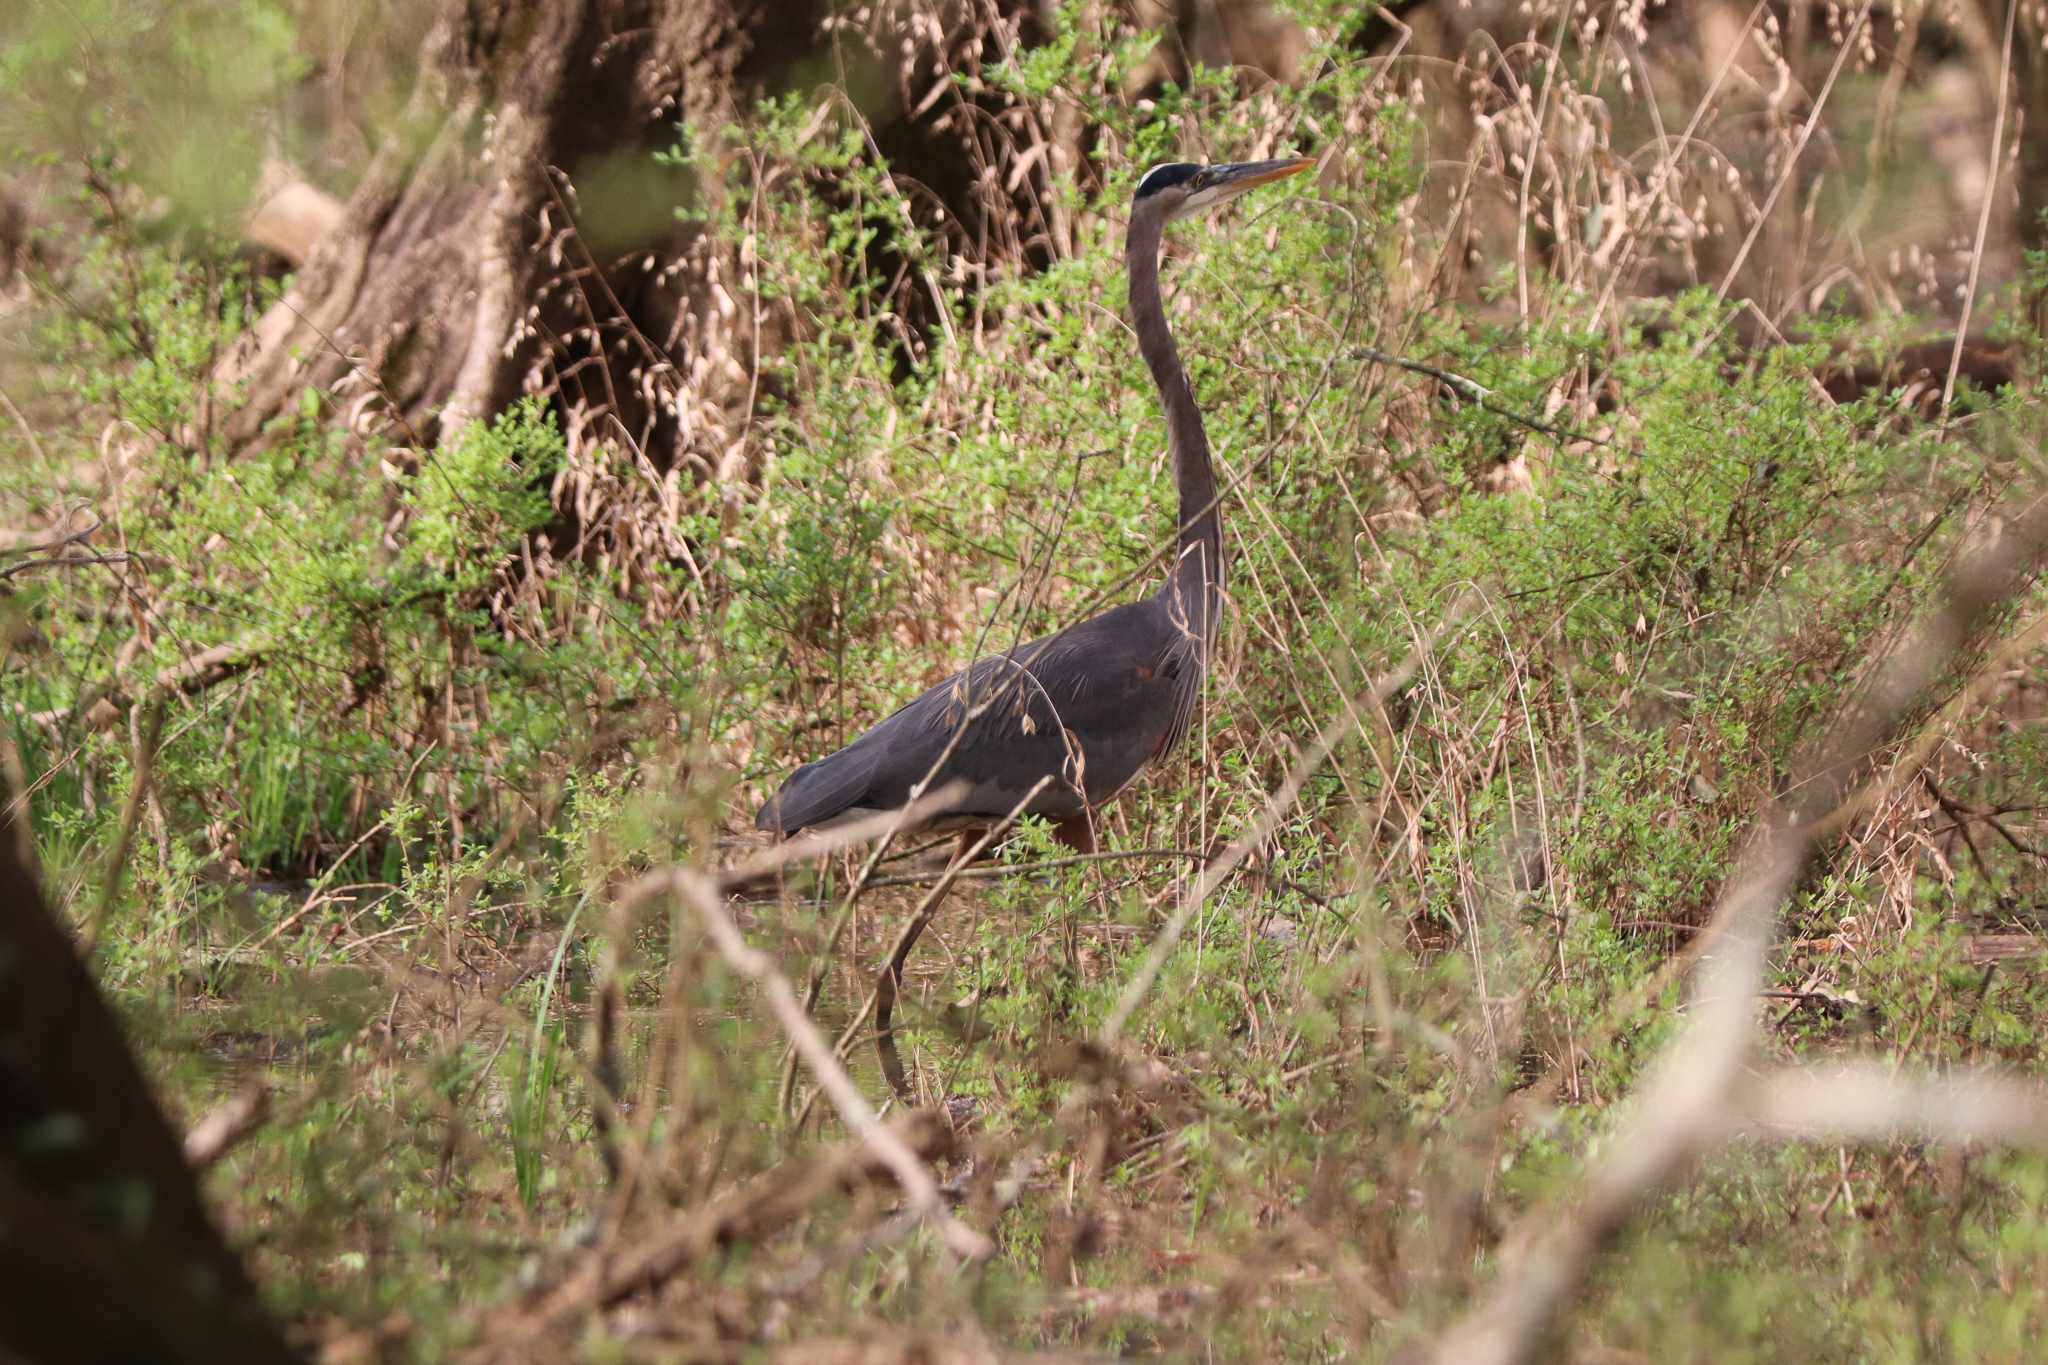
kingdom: Animalia
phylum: Chordata
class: Aves
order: Pelecaniformes
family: Ardeidae
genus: Ardea
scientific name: Ardea herodias
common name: Great blue heron
